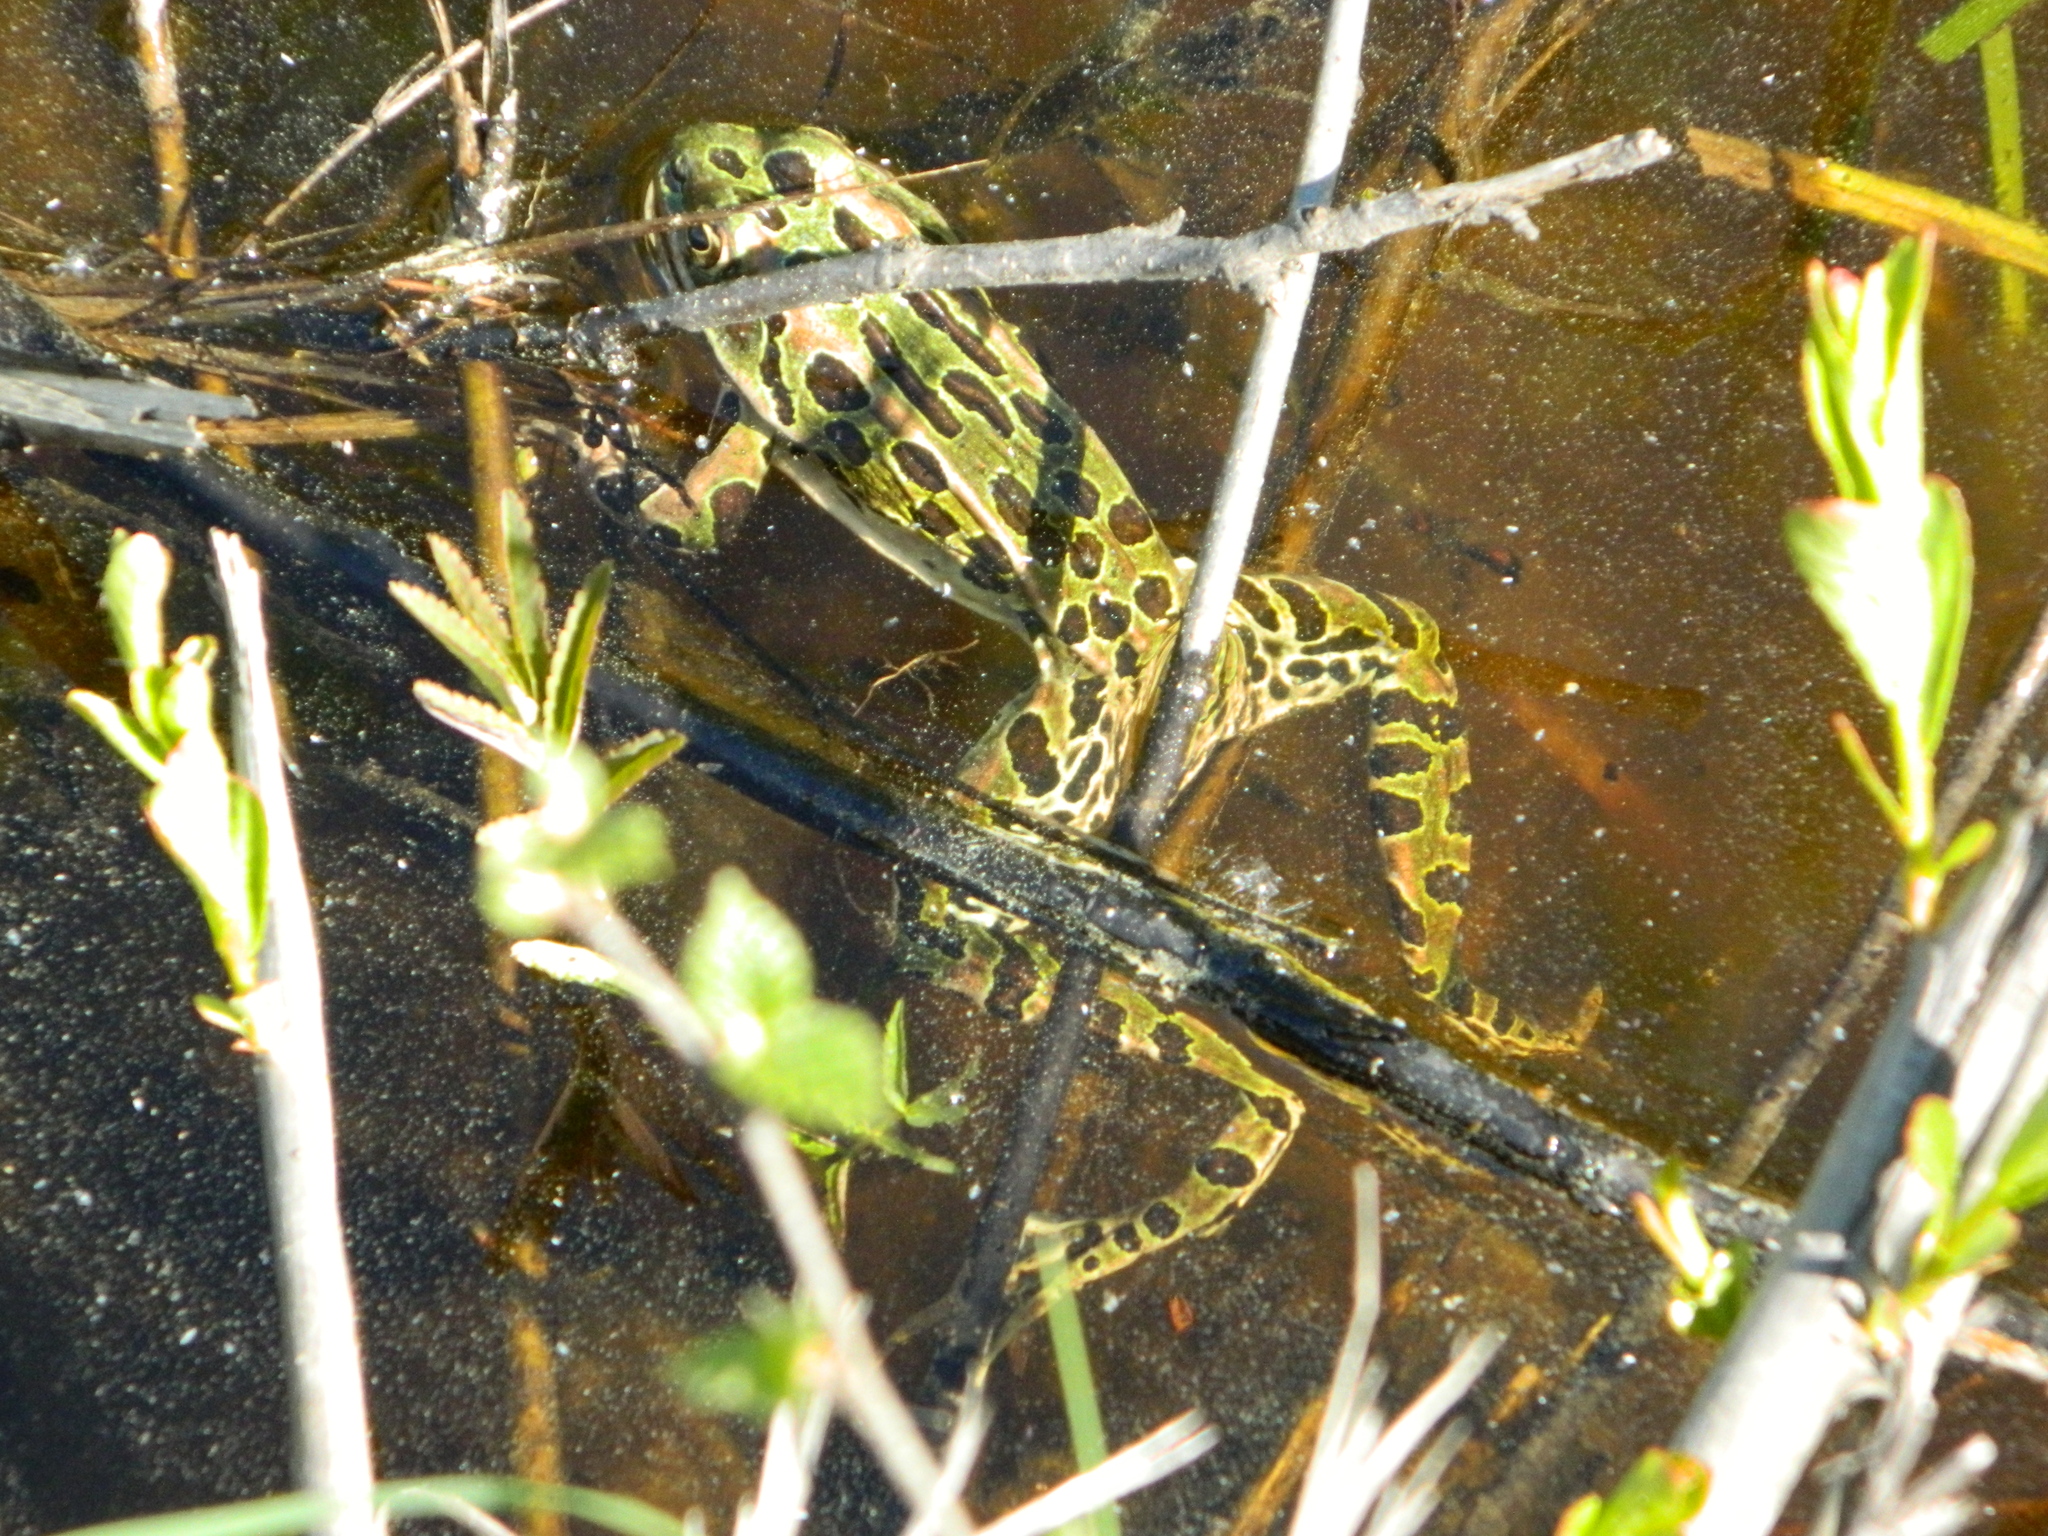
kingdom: Animalia
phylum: Chordata
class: Amphibia
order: Anura
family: Ranidae
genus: Lithobates
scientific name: Lithobates pipiens
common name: Northern leopard frog
